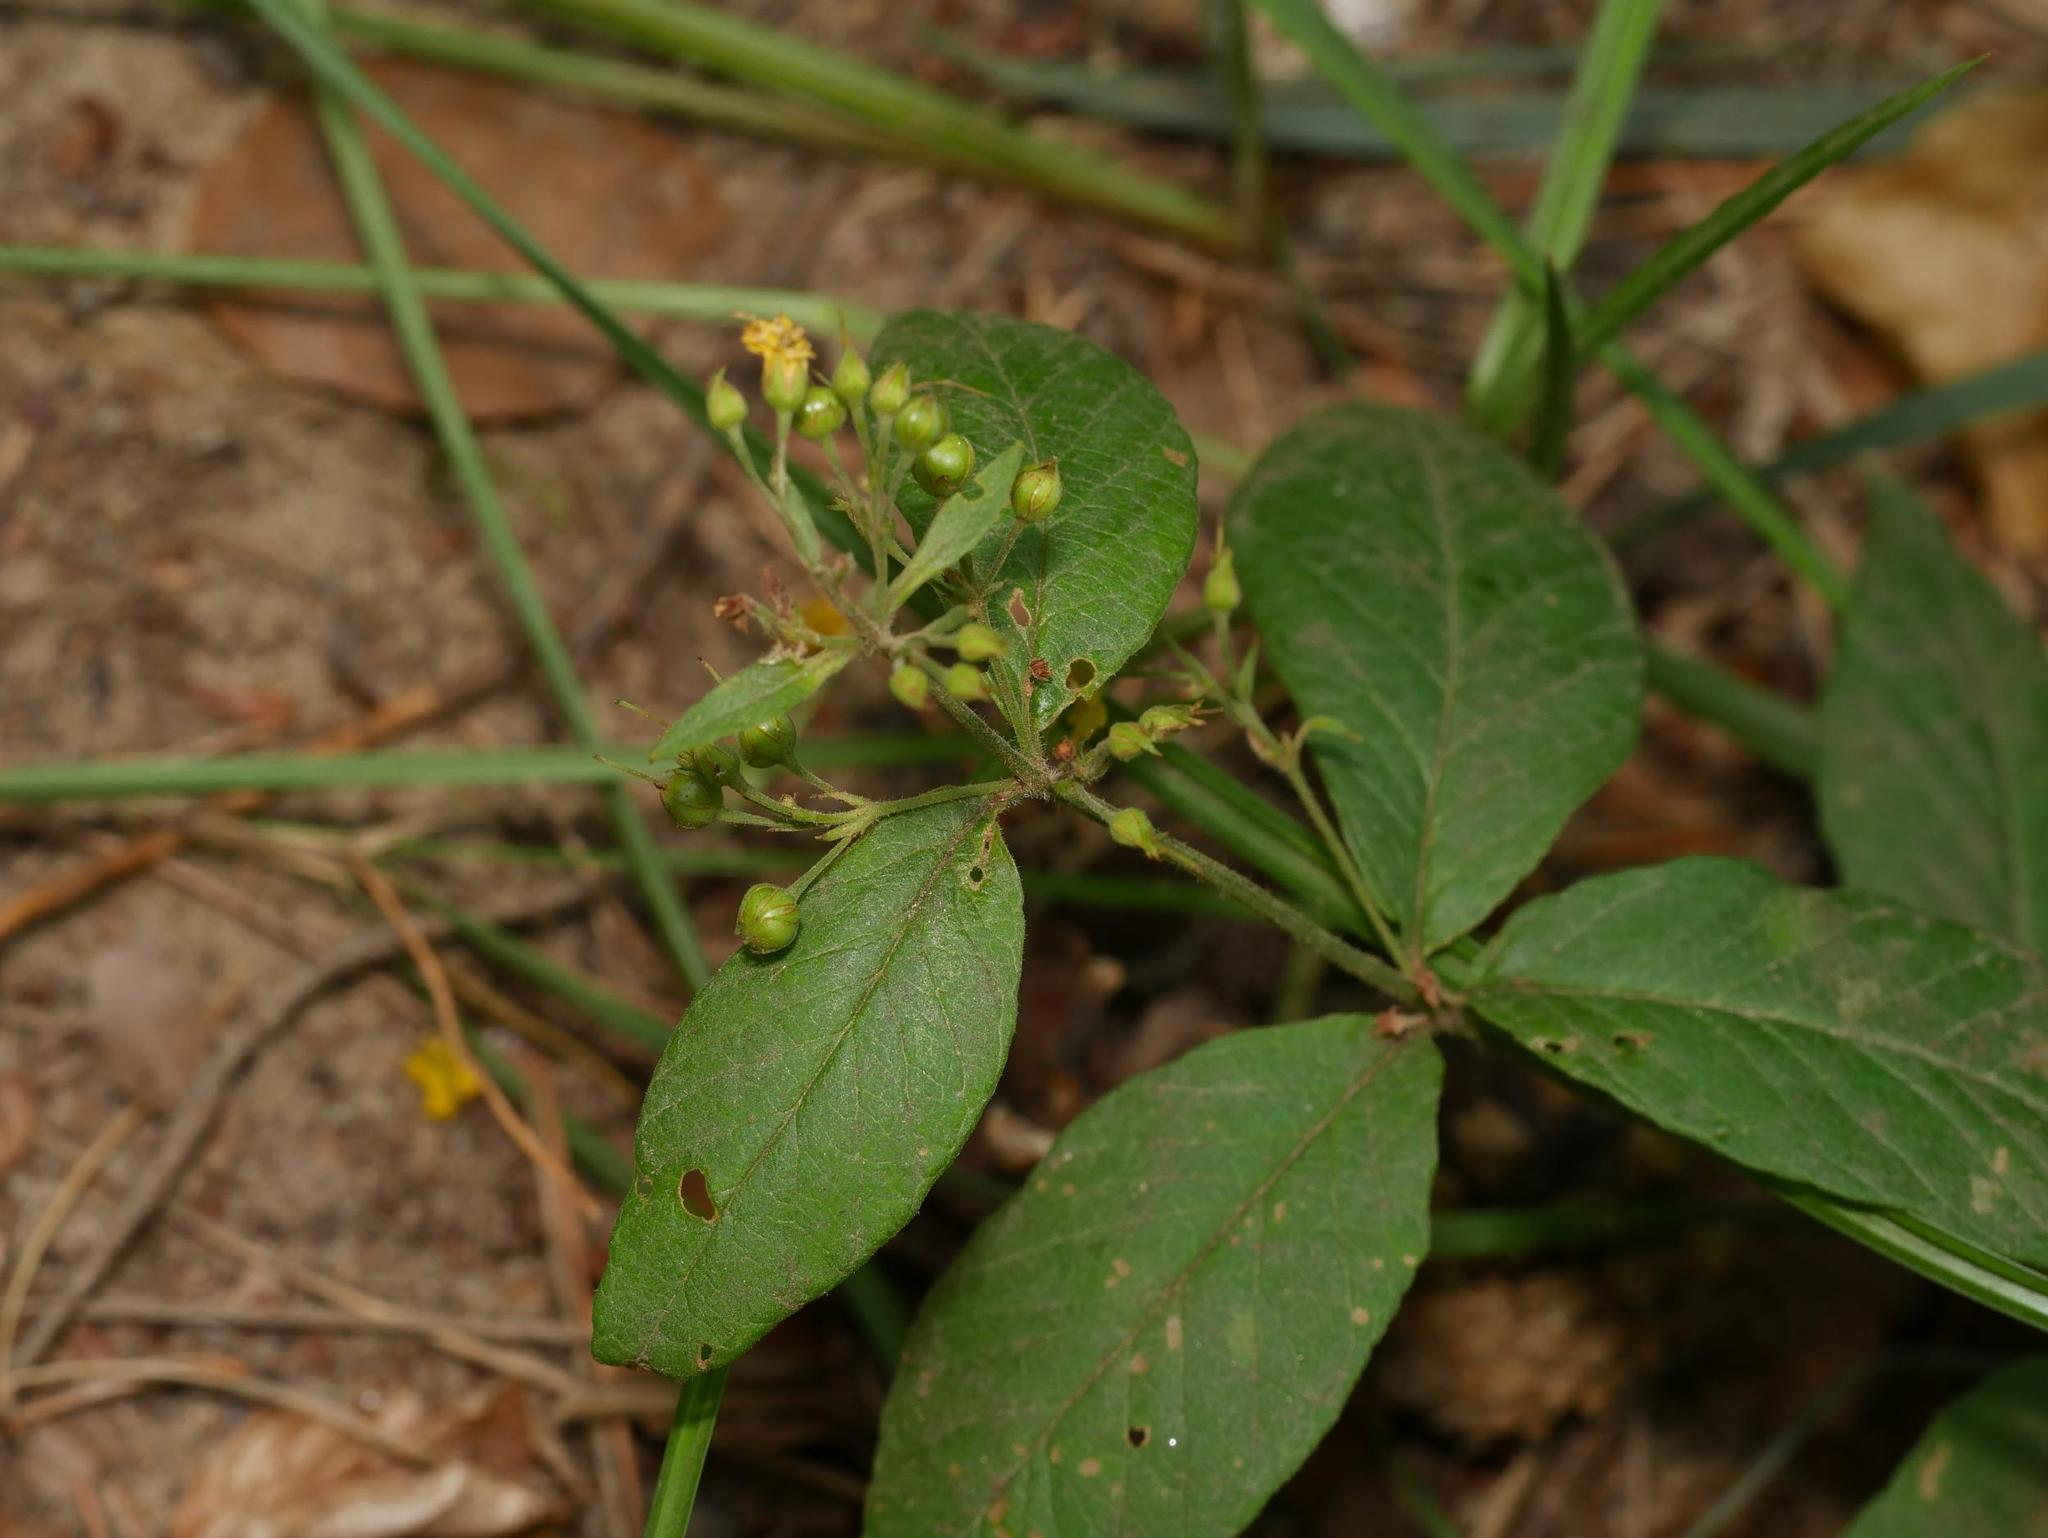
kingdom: Plantae
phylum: Tracheophyta
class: Magnoliopsida
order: Ericales
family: Primulaceae
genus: Lysimachia
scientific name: Lysimachia vulgaris
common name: Yellow loosestrife
